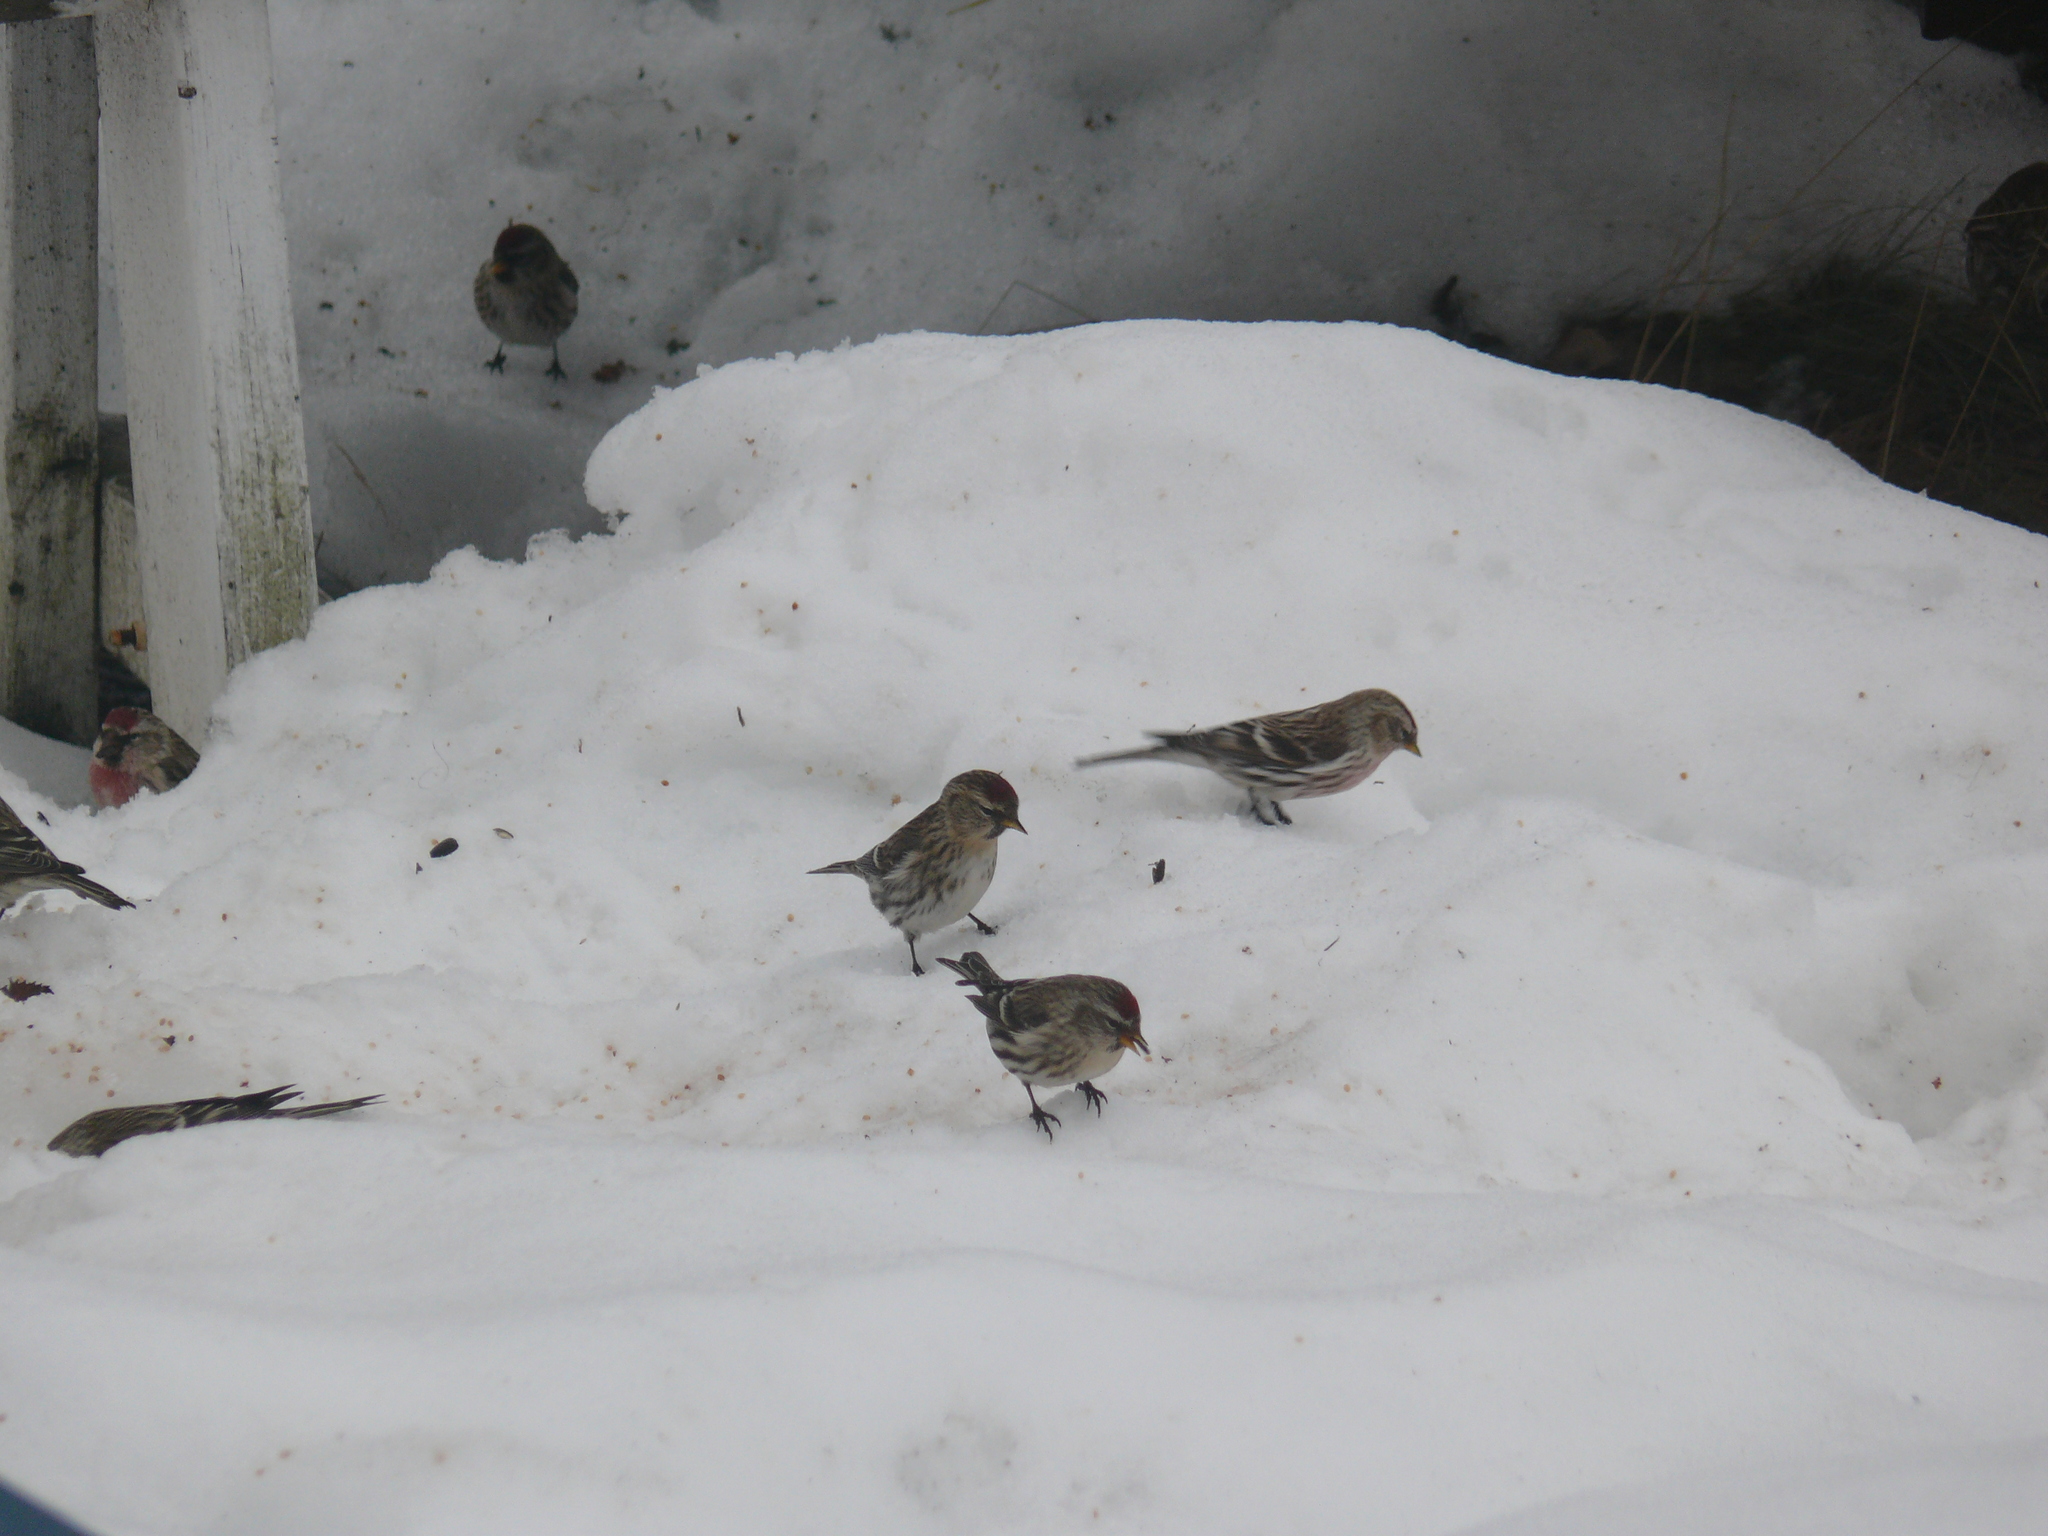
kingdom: Animalia
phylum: Chordata
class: Aves
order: Passeriformes
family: Fringillidae
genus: Acanthis
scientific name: Acanthis flammea
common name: Common redpoll
